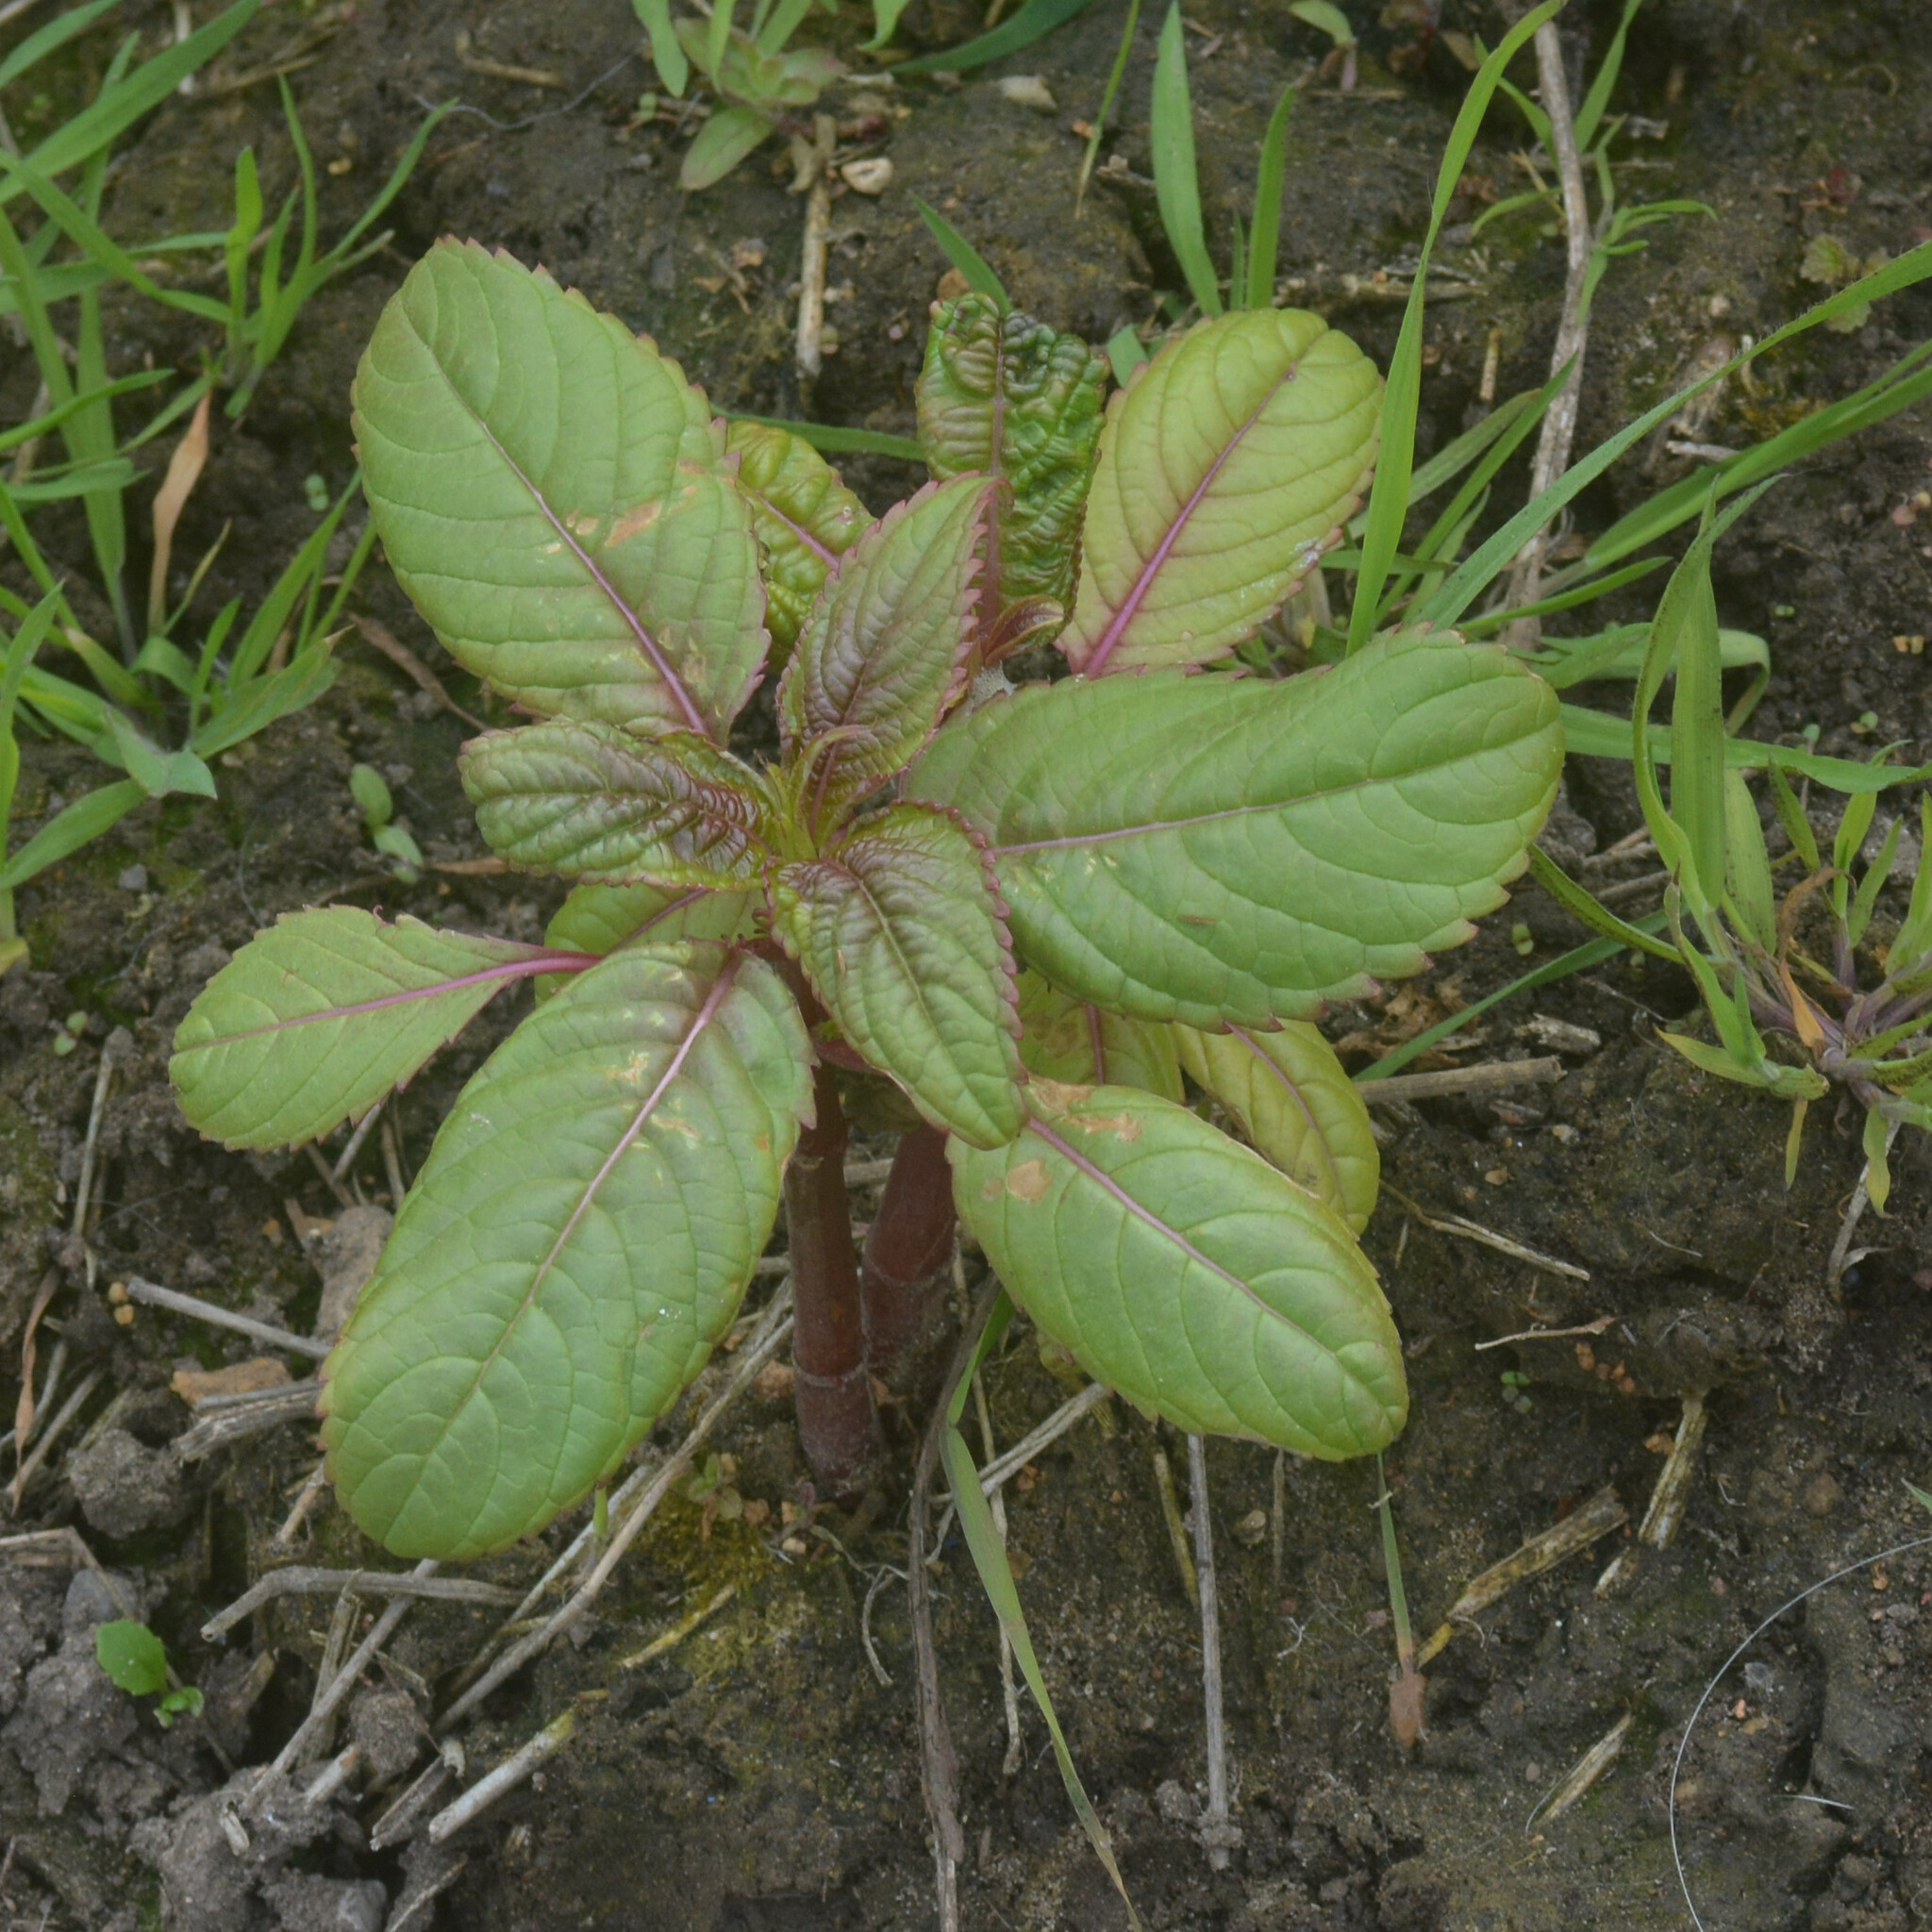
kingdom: Plantae
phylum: Tracheophyta
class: Magnoliopsida
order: Ericales
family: Balsaminaceae
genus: Impatiens
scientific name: Impatiens glandulifera
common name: Himalayan balsam
